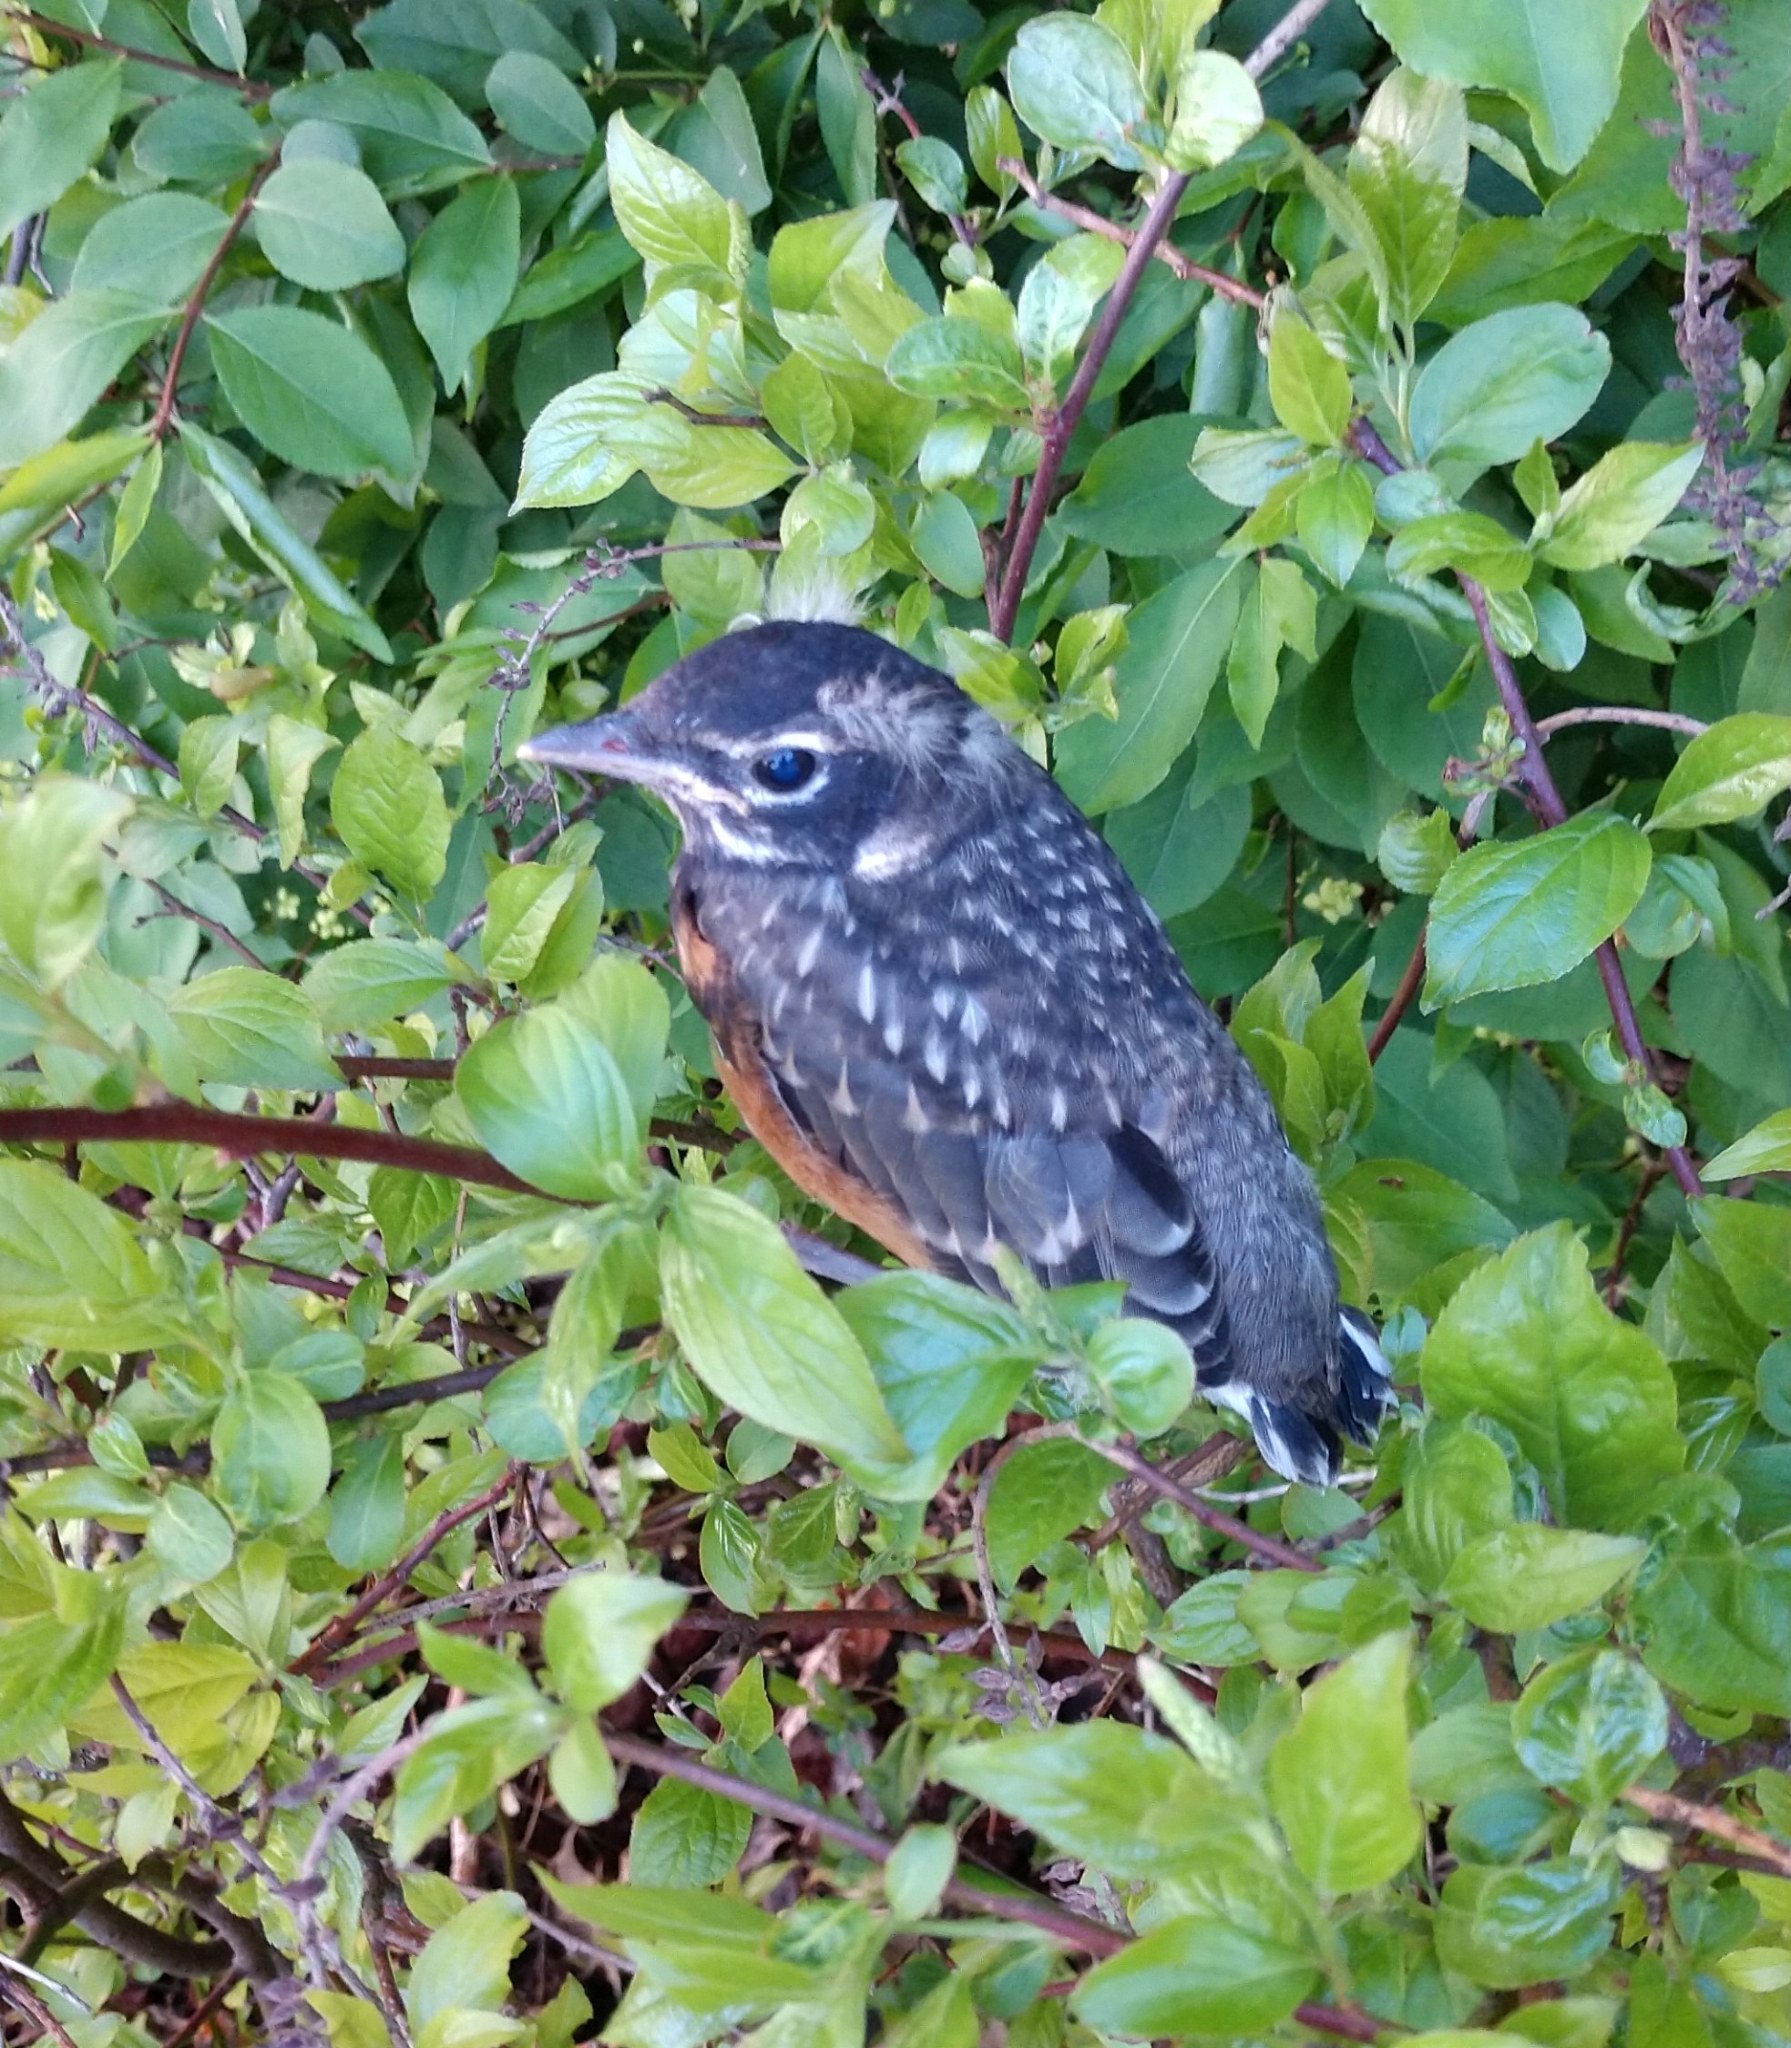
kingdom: Animalia
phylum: Chordata
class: Aves
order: Passeriformes
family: Turdidae
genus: Turdus
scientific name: Turdus migratorius
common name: American robin
